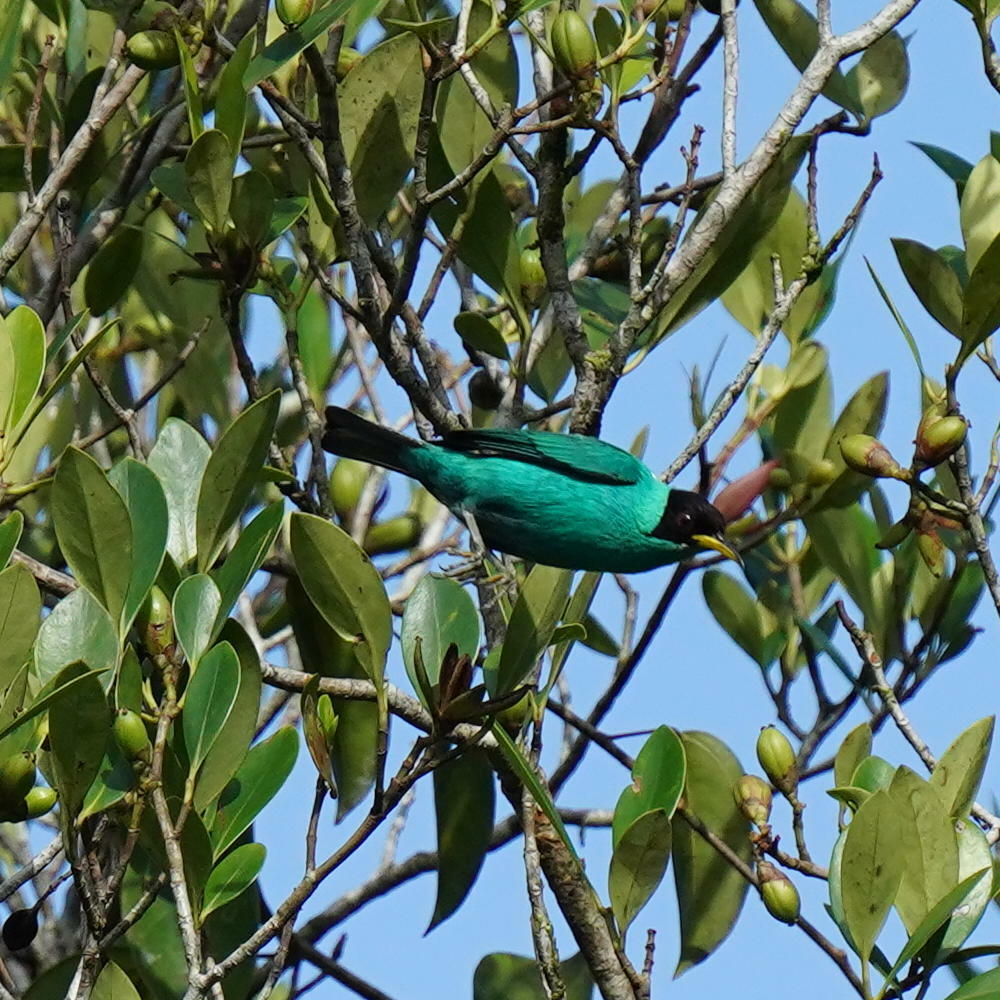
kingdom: Animalia
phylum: Chordata
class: Aves
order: Passeriformes
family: Thraupidae
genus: Chlorophanes
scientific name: Chlorophanes spiza
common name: Green honeycreeper
